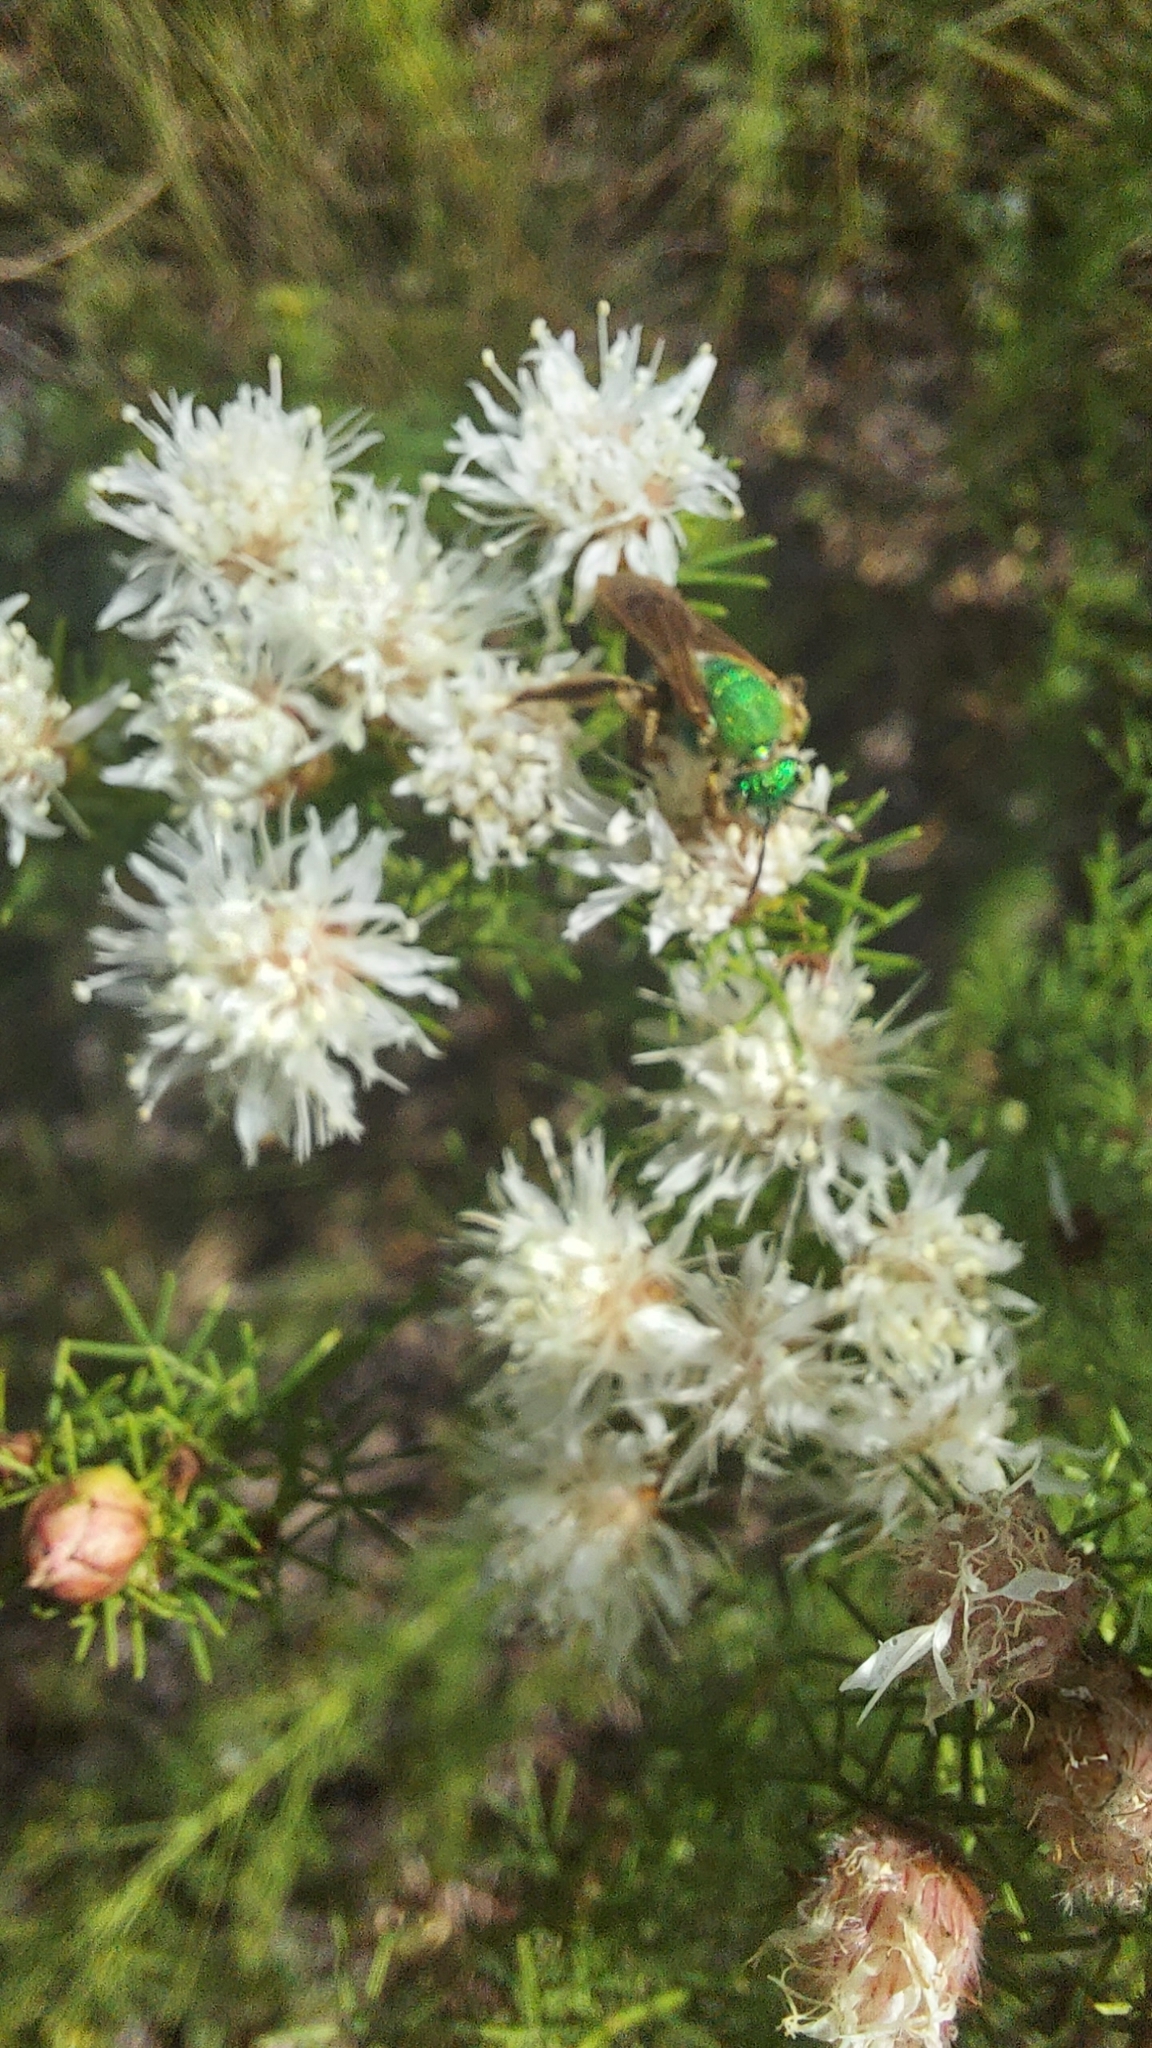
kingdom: Animalia
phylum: Arthropoda
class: Insecta
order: Hymenoptera
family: Halictidae
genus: Agapostemon
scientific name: Agapostemon splendens
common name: Brown-winged striped sweat bee
